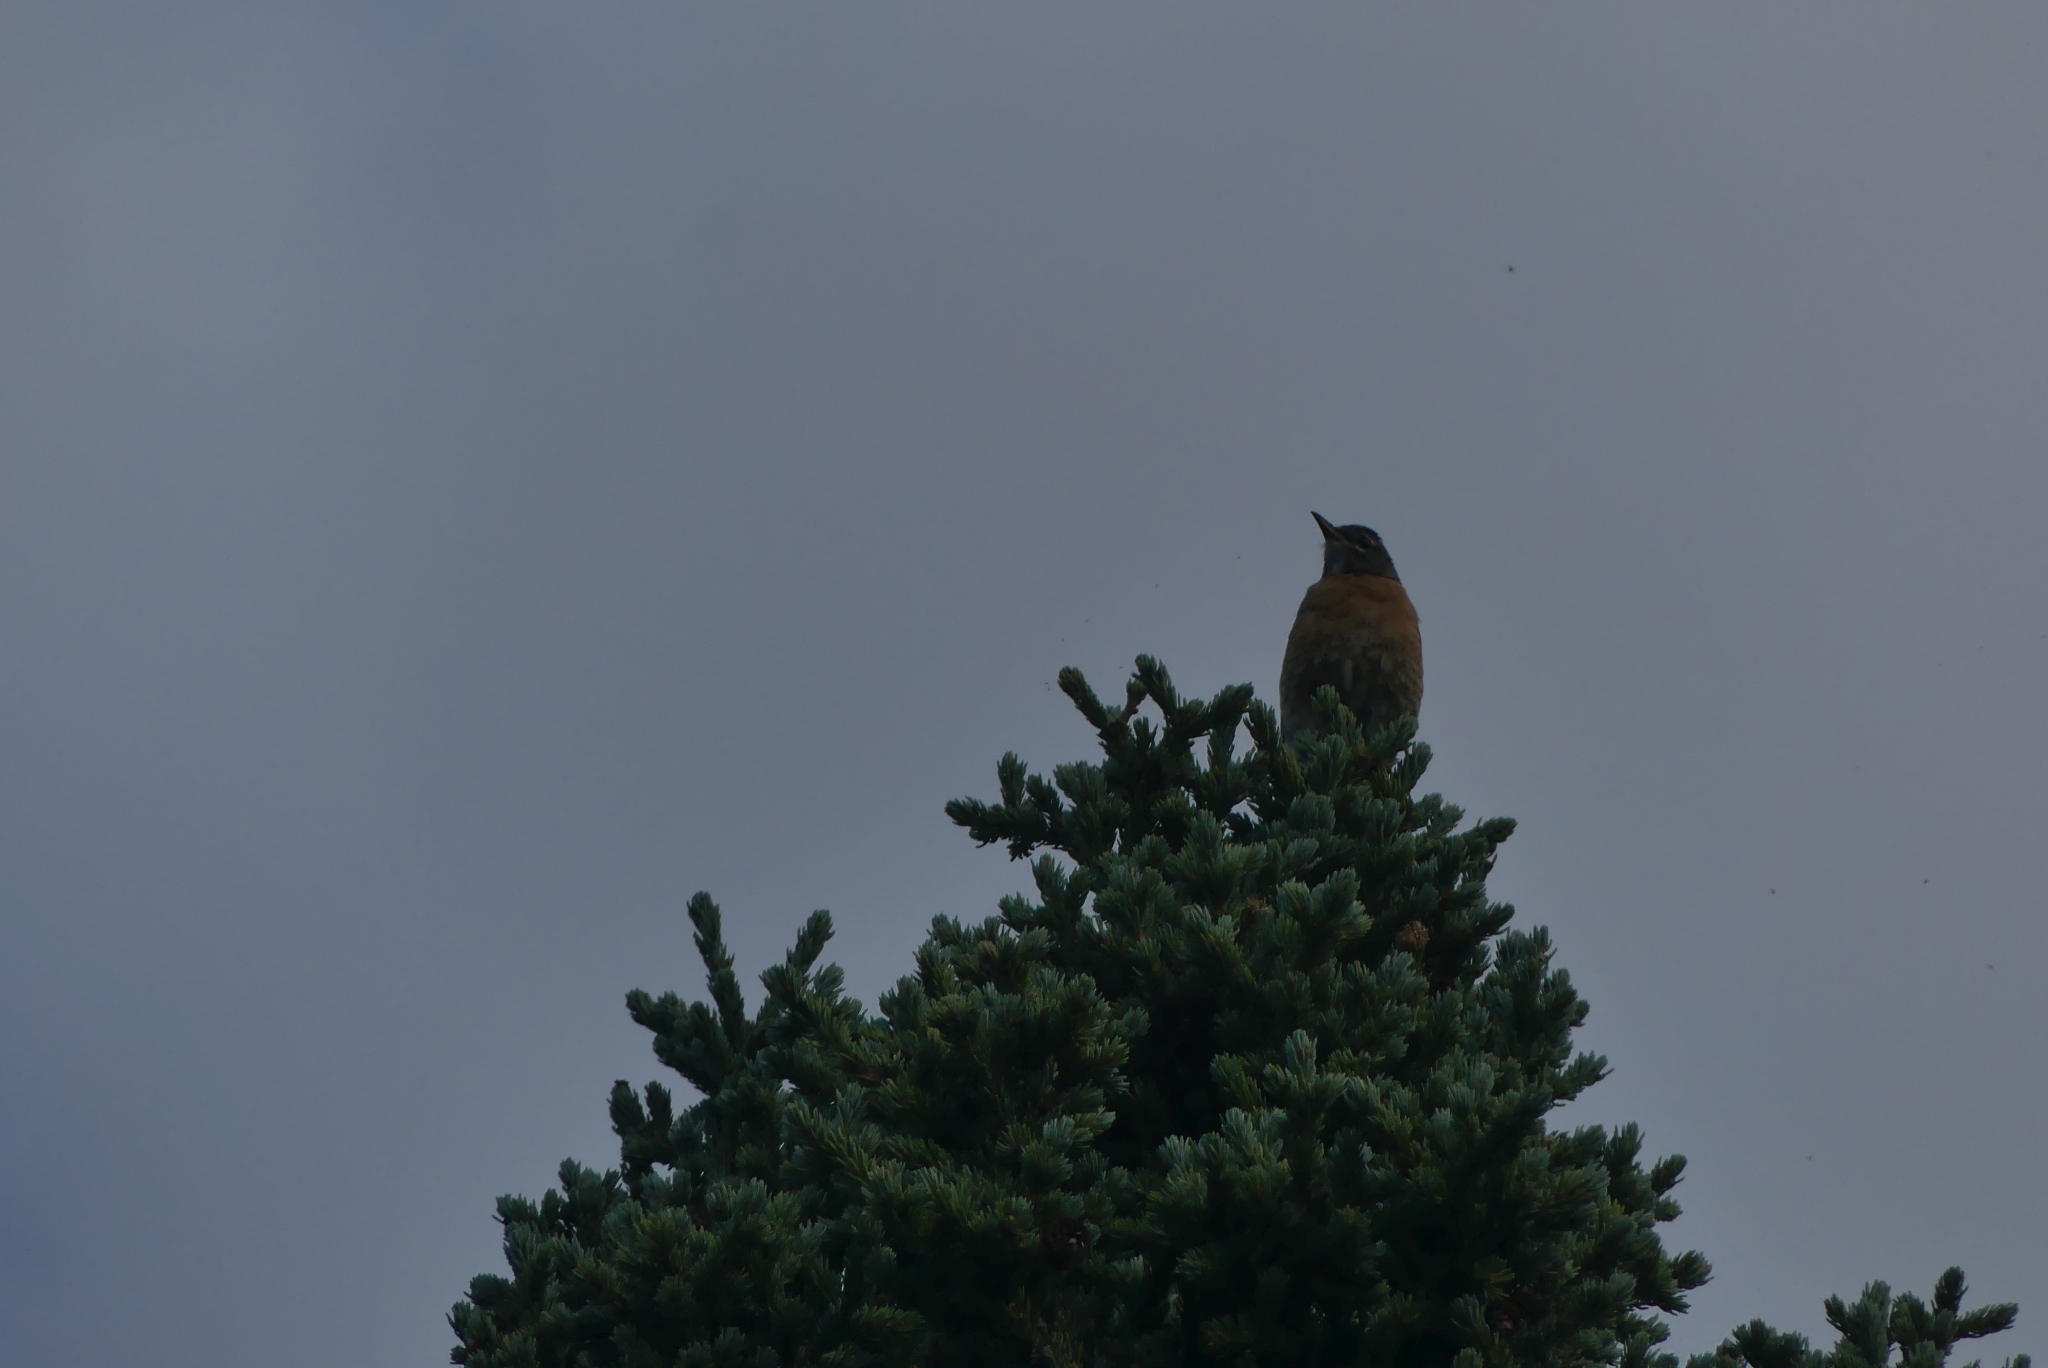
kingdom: Animalia
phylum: Chordata
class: Aves
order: Passeriformes
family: Turdidae
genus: Turdus
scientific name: Turdus migratorius
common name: American robin
